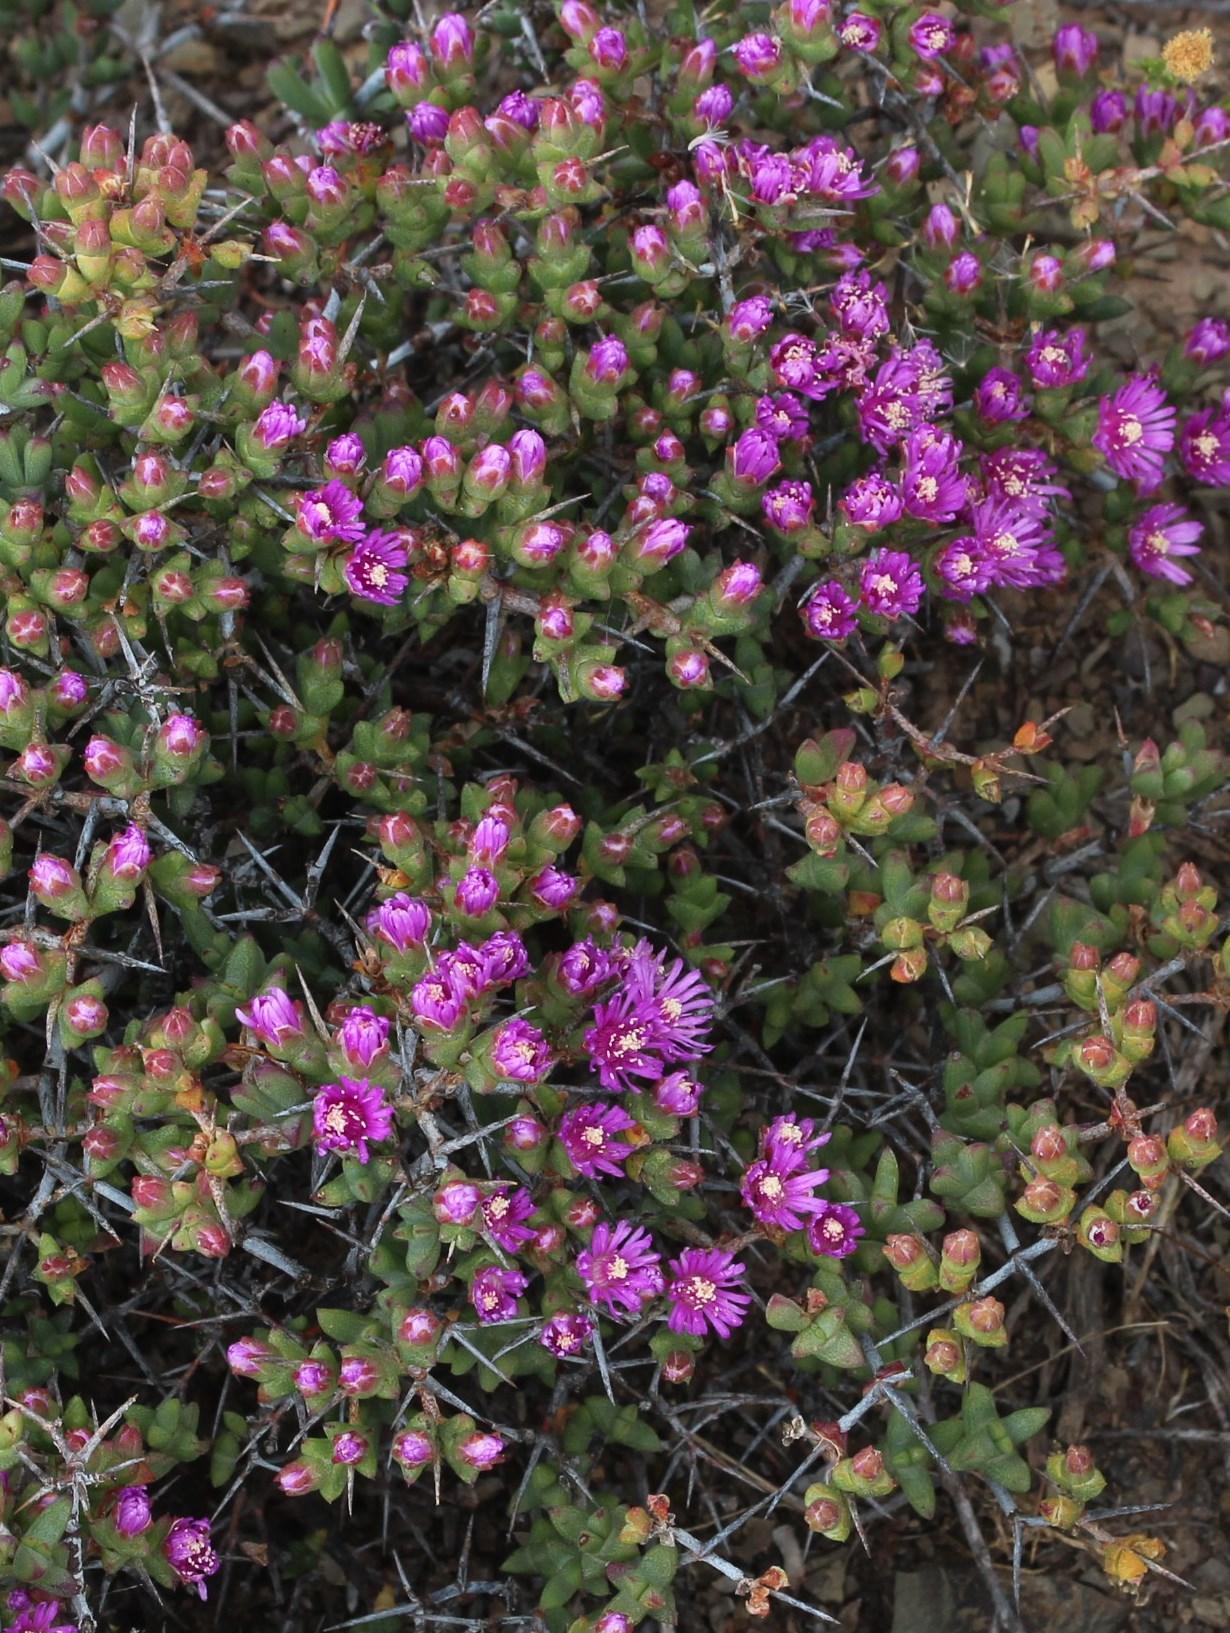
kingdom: Plantae
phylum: Tracheophyta
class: Magnoliopsida
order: Caryophyllales
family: Aizoaceae
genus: Ruschia
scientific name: Ruschia spinosa
